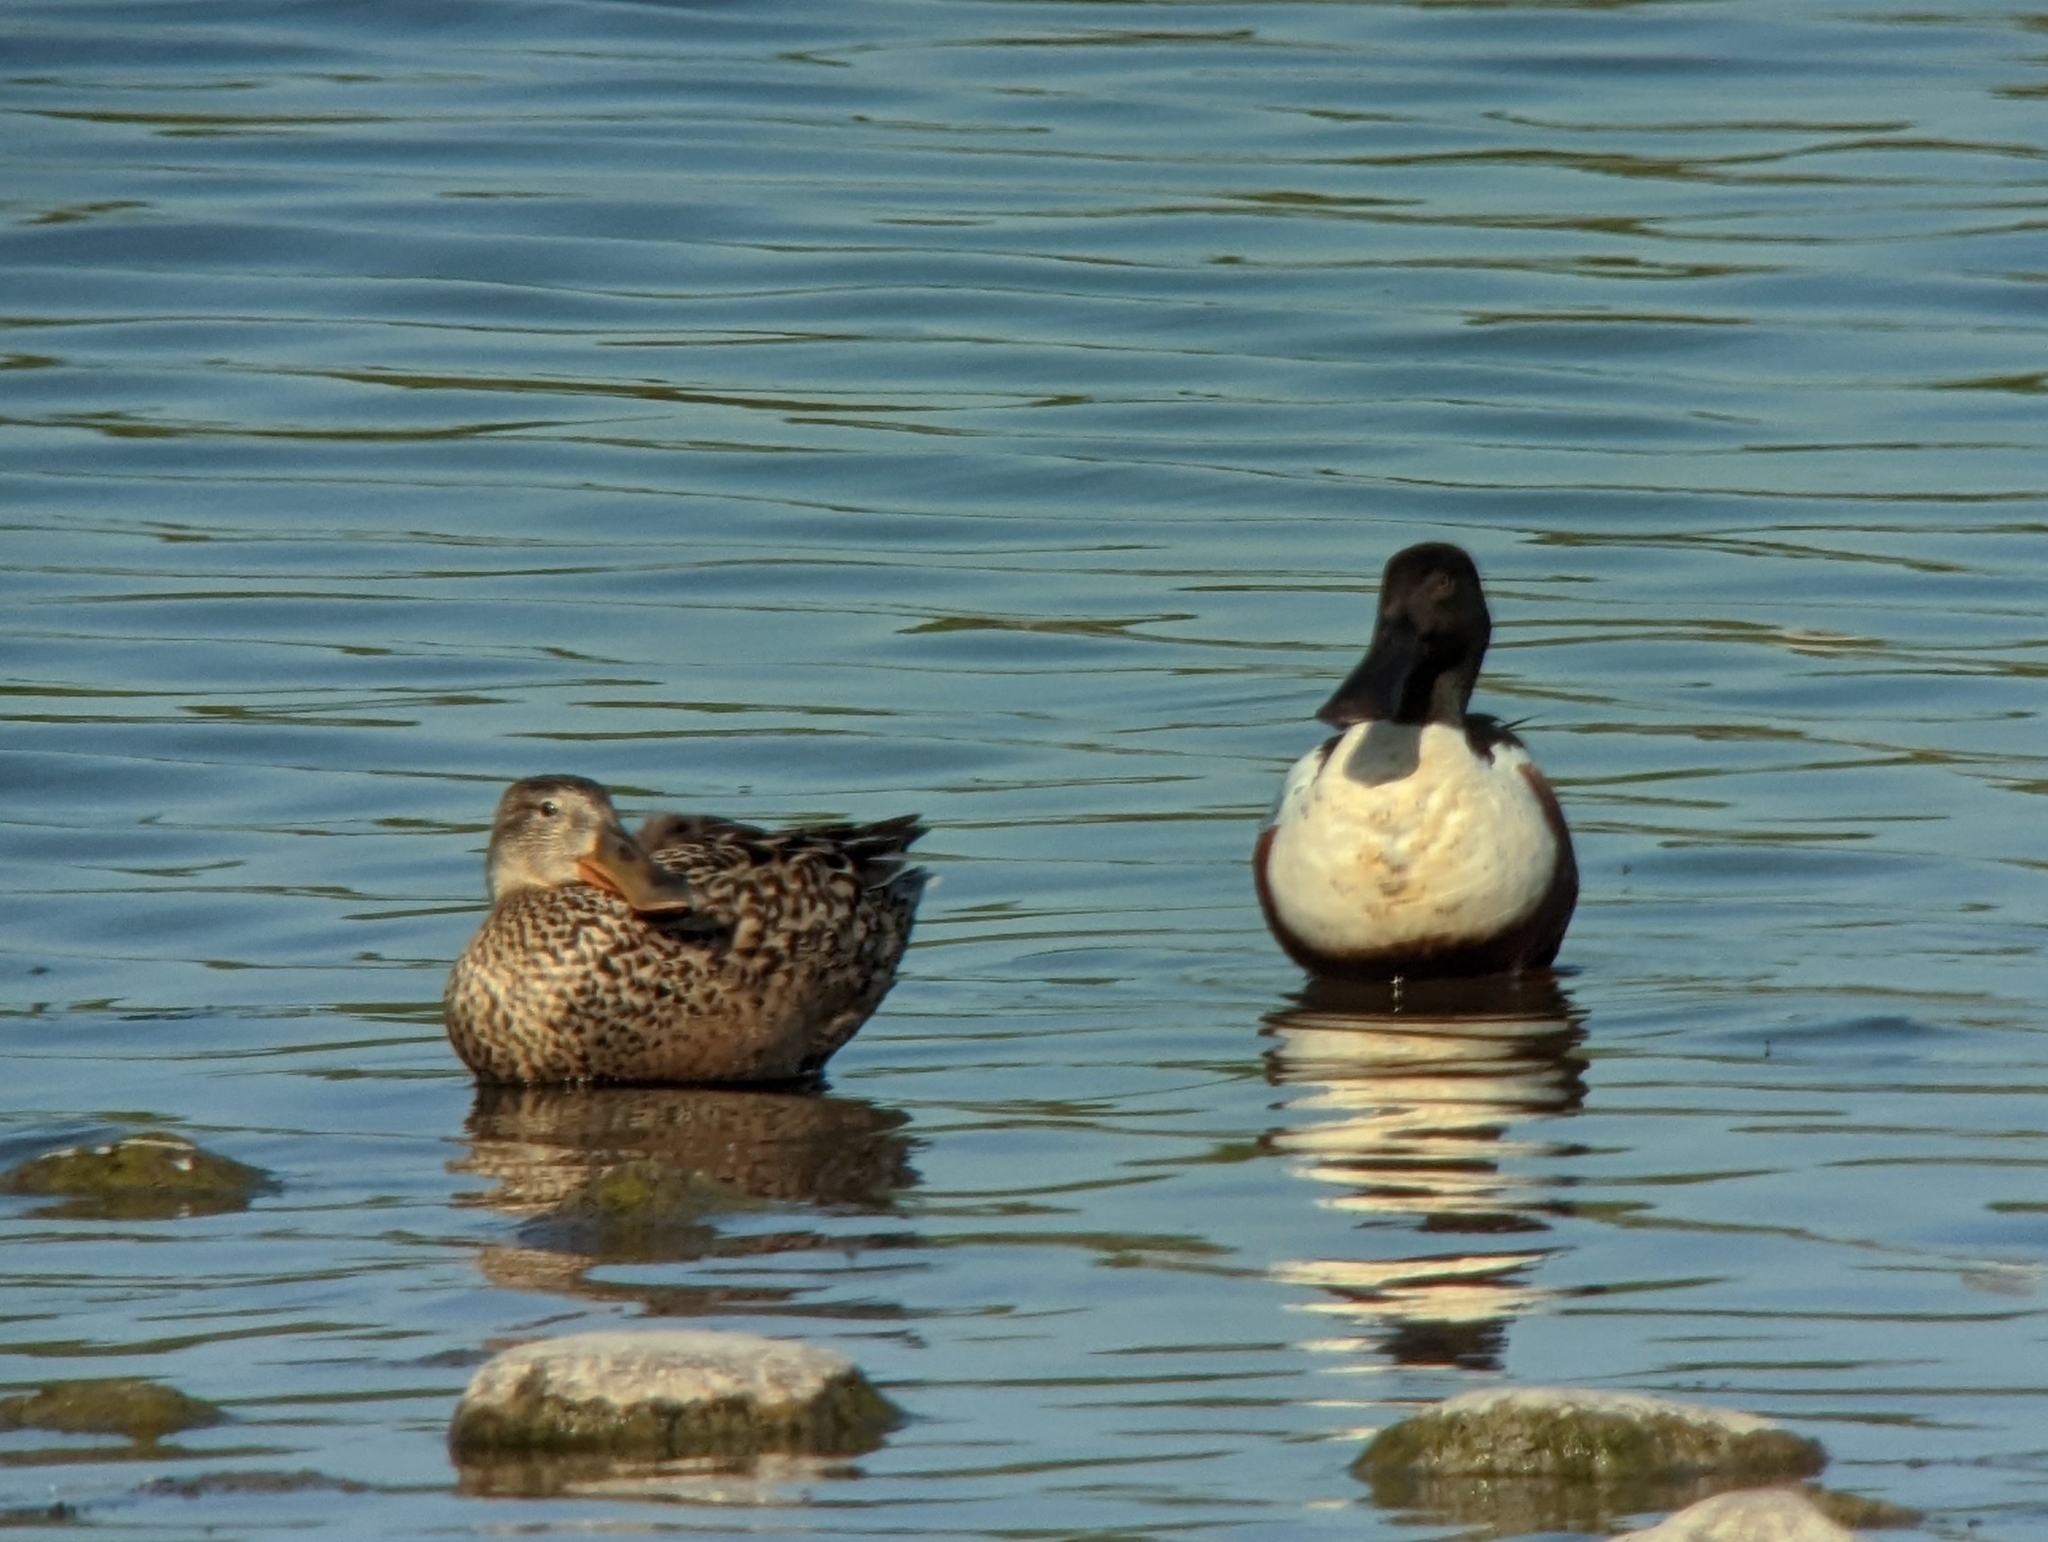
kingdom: Animalia
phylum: Chordata
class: Aves
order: Anseriformes
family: Anatidae
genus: Spatula
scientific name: Spatula clypeata
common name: Northern shoveler
